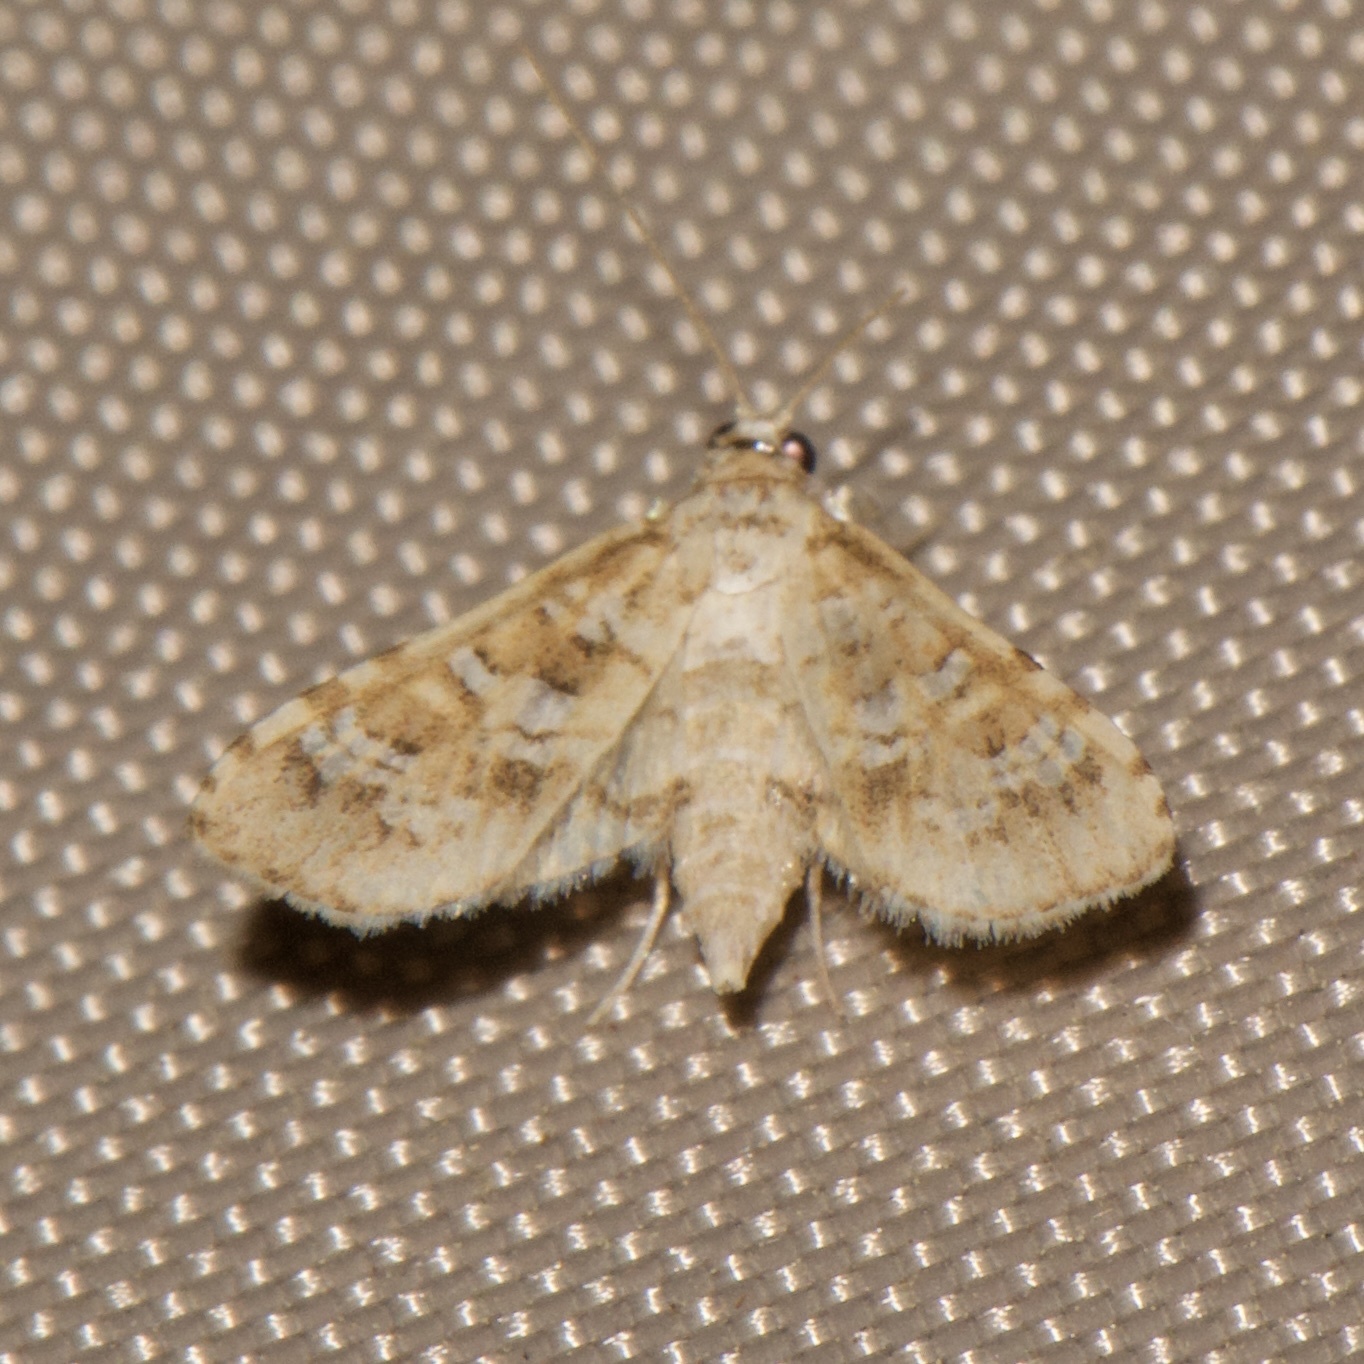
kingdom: Animalia
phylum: Arthropoda
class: Insecta
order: Lepidoptera
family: Crambidae
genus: Samea
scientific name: Samea multiplicalis
